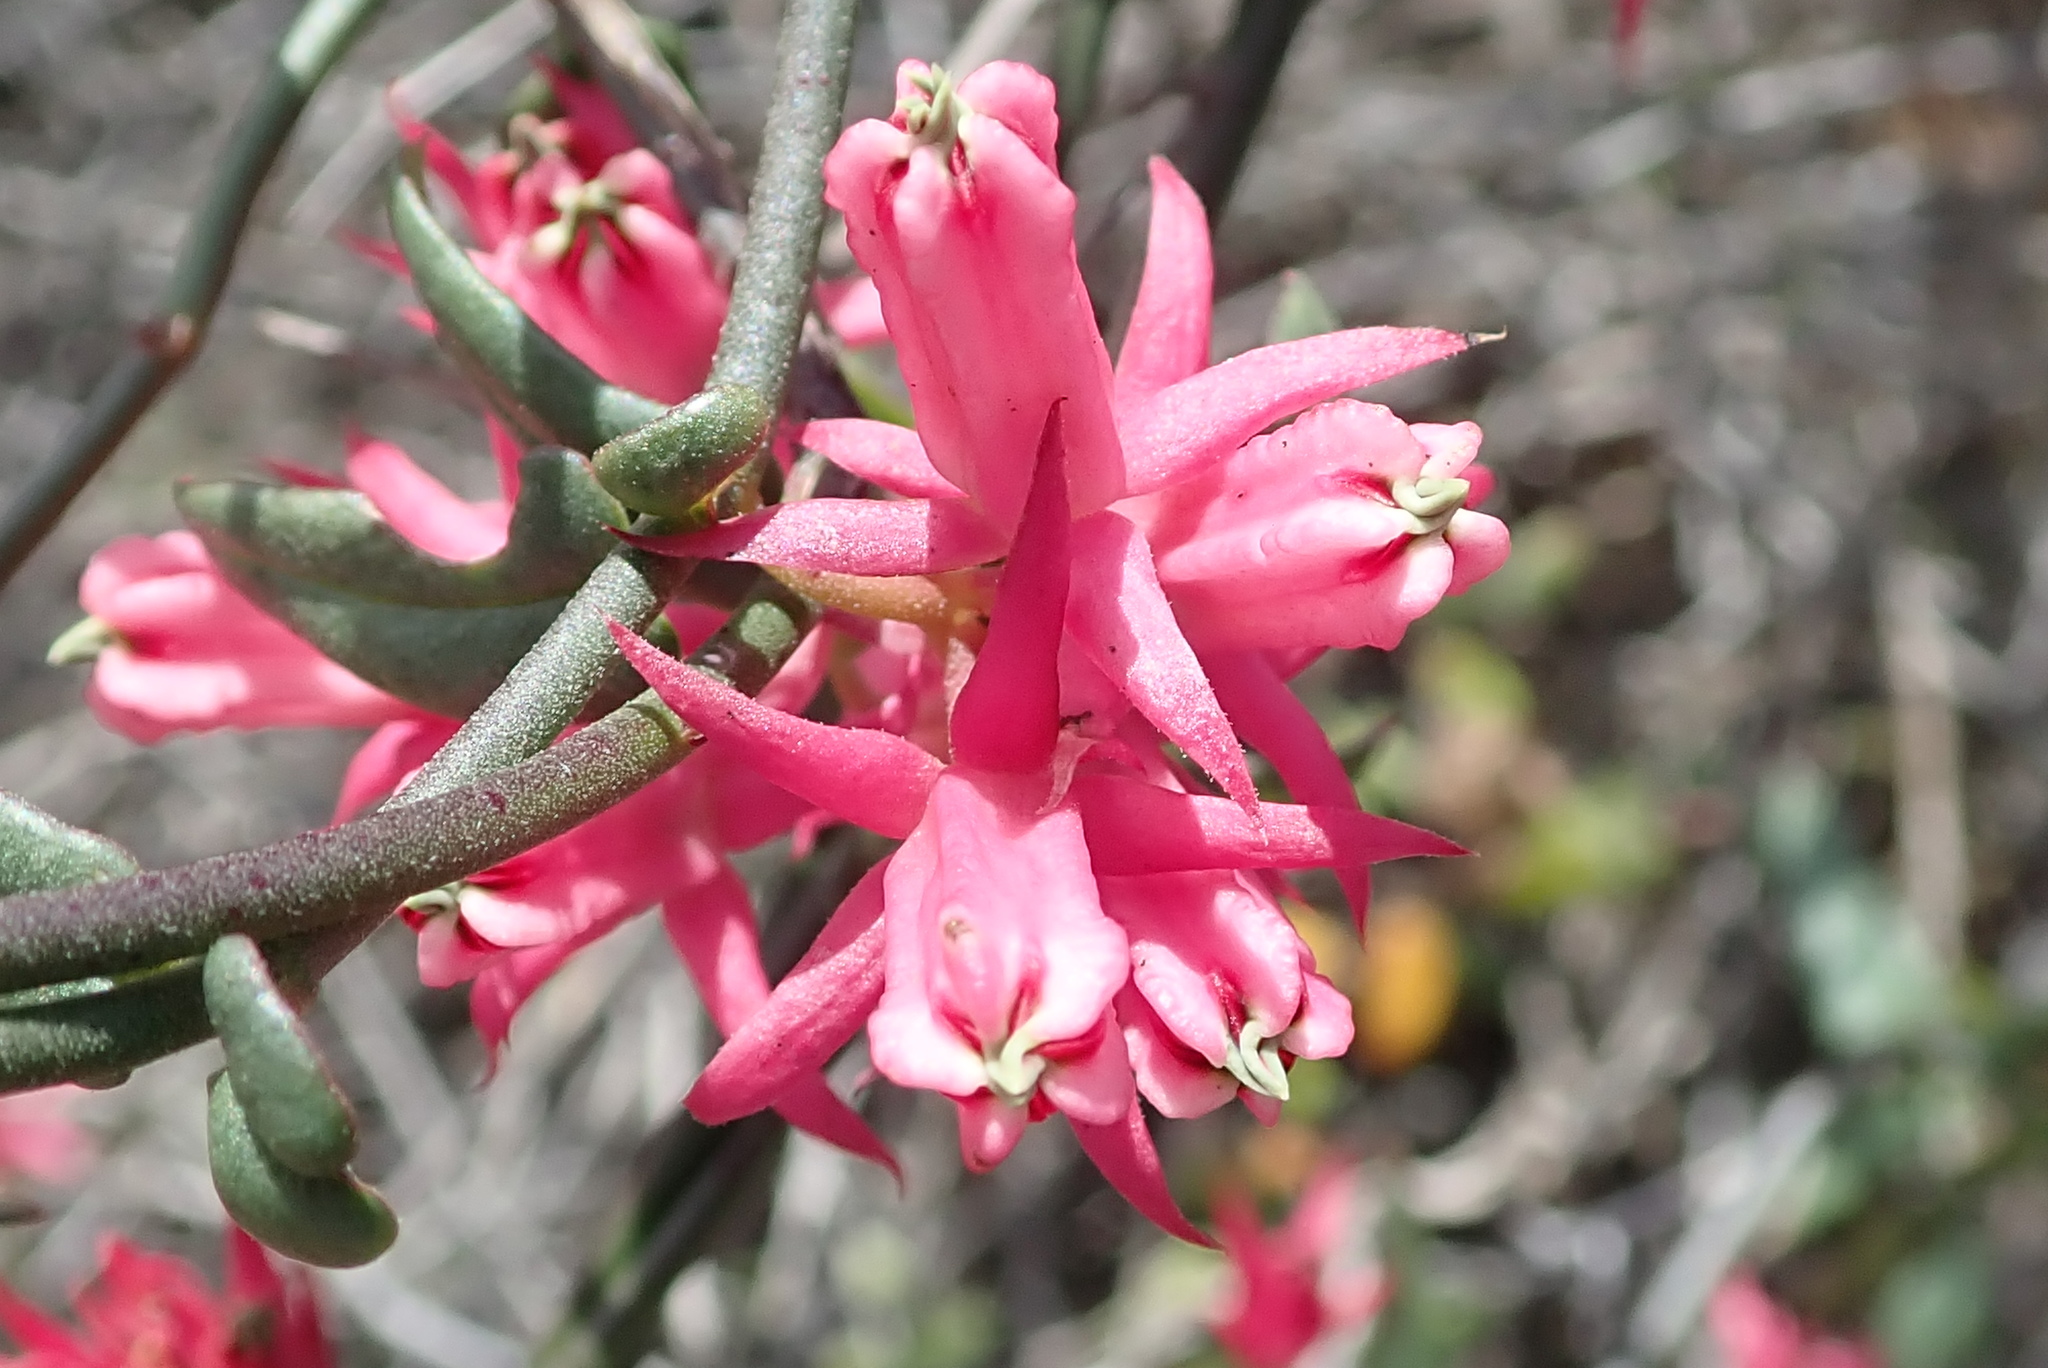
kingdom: Plantae
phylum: Tracheophyta
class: Magnoliopsida
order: Gentianales
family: Apocynaceae
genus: Microloma
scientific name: Microloma sagittatum
